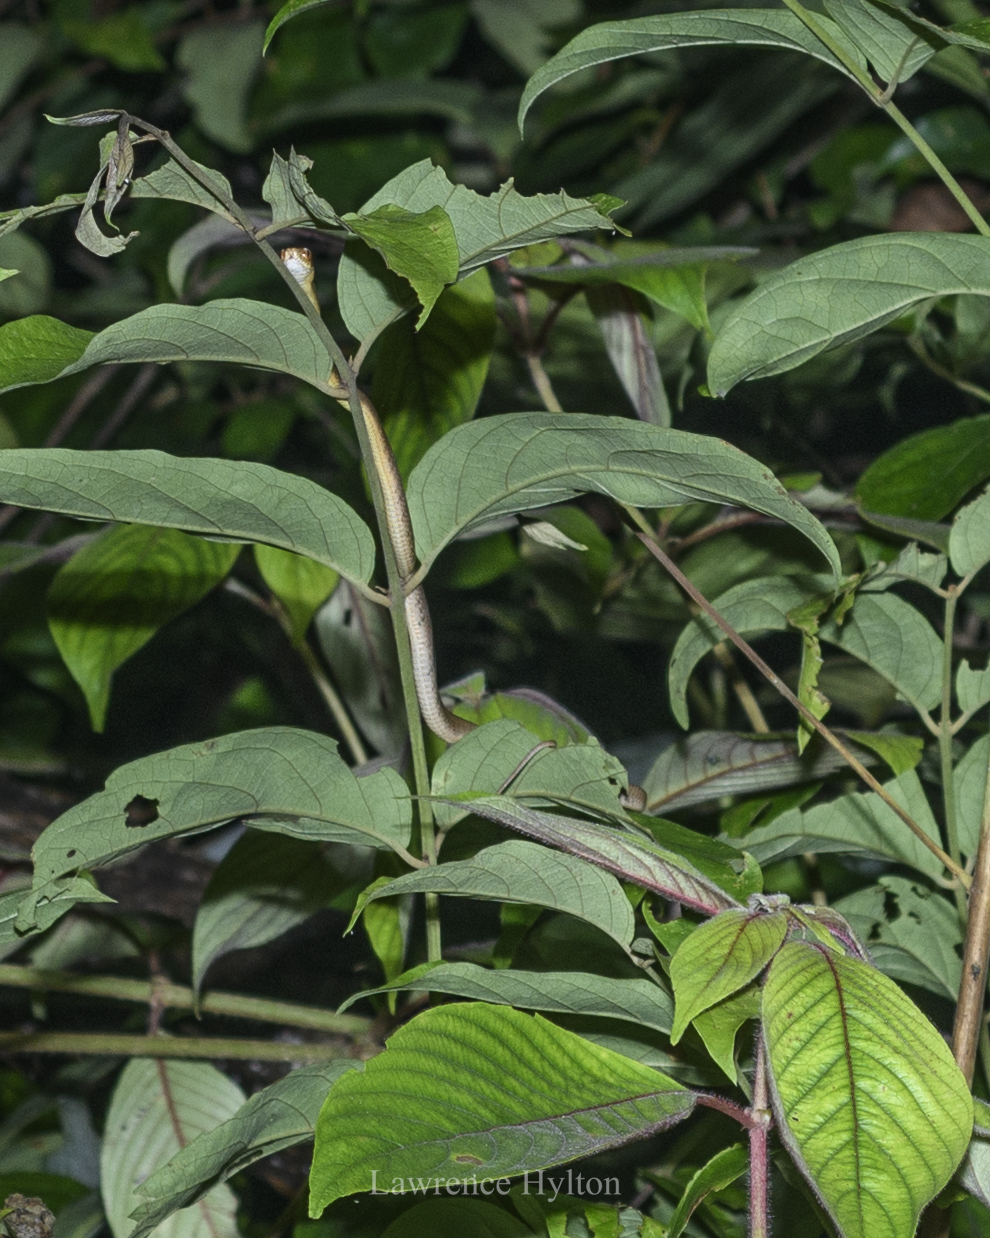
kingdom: Animalia
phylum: Chordata
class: Squamata
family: Pareidae
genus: Pareas
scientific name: Pareas carinatus
